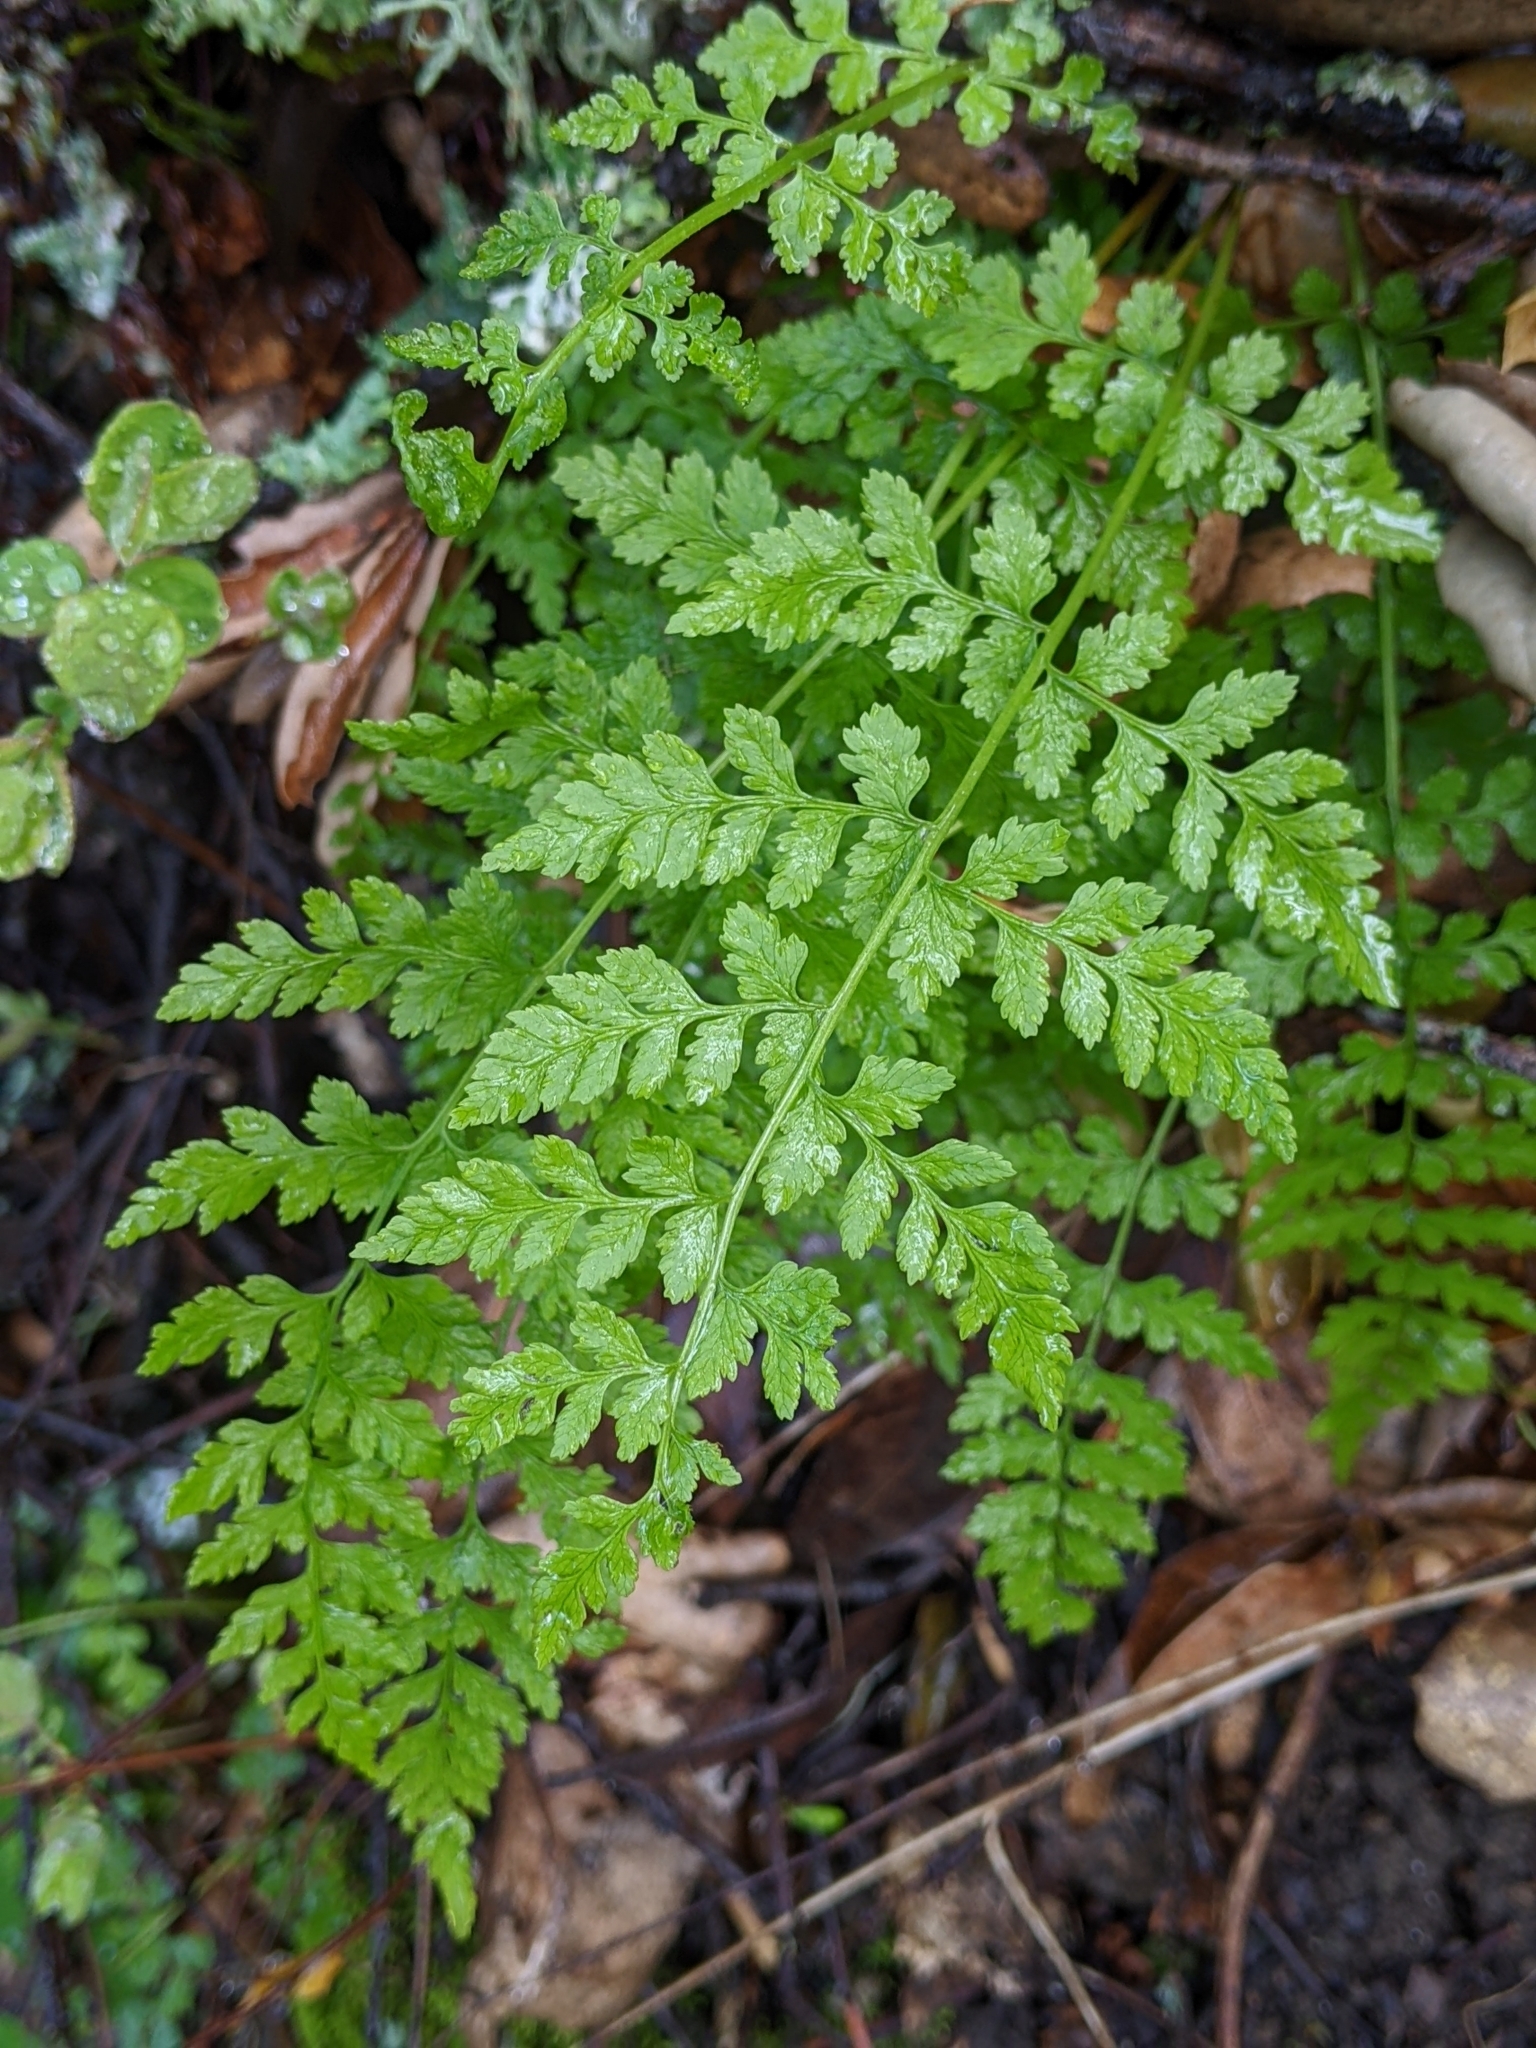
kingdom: Plantae
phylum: Tracheophyta
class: Polypodiopsida
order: Polypodiales
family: Cystopteridaceae
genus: Cystopteris
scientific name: Cystopteris fragilis
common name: Brittle bladder fern
